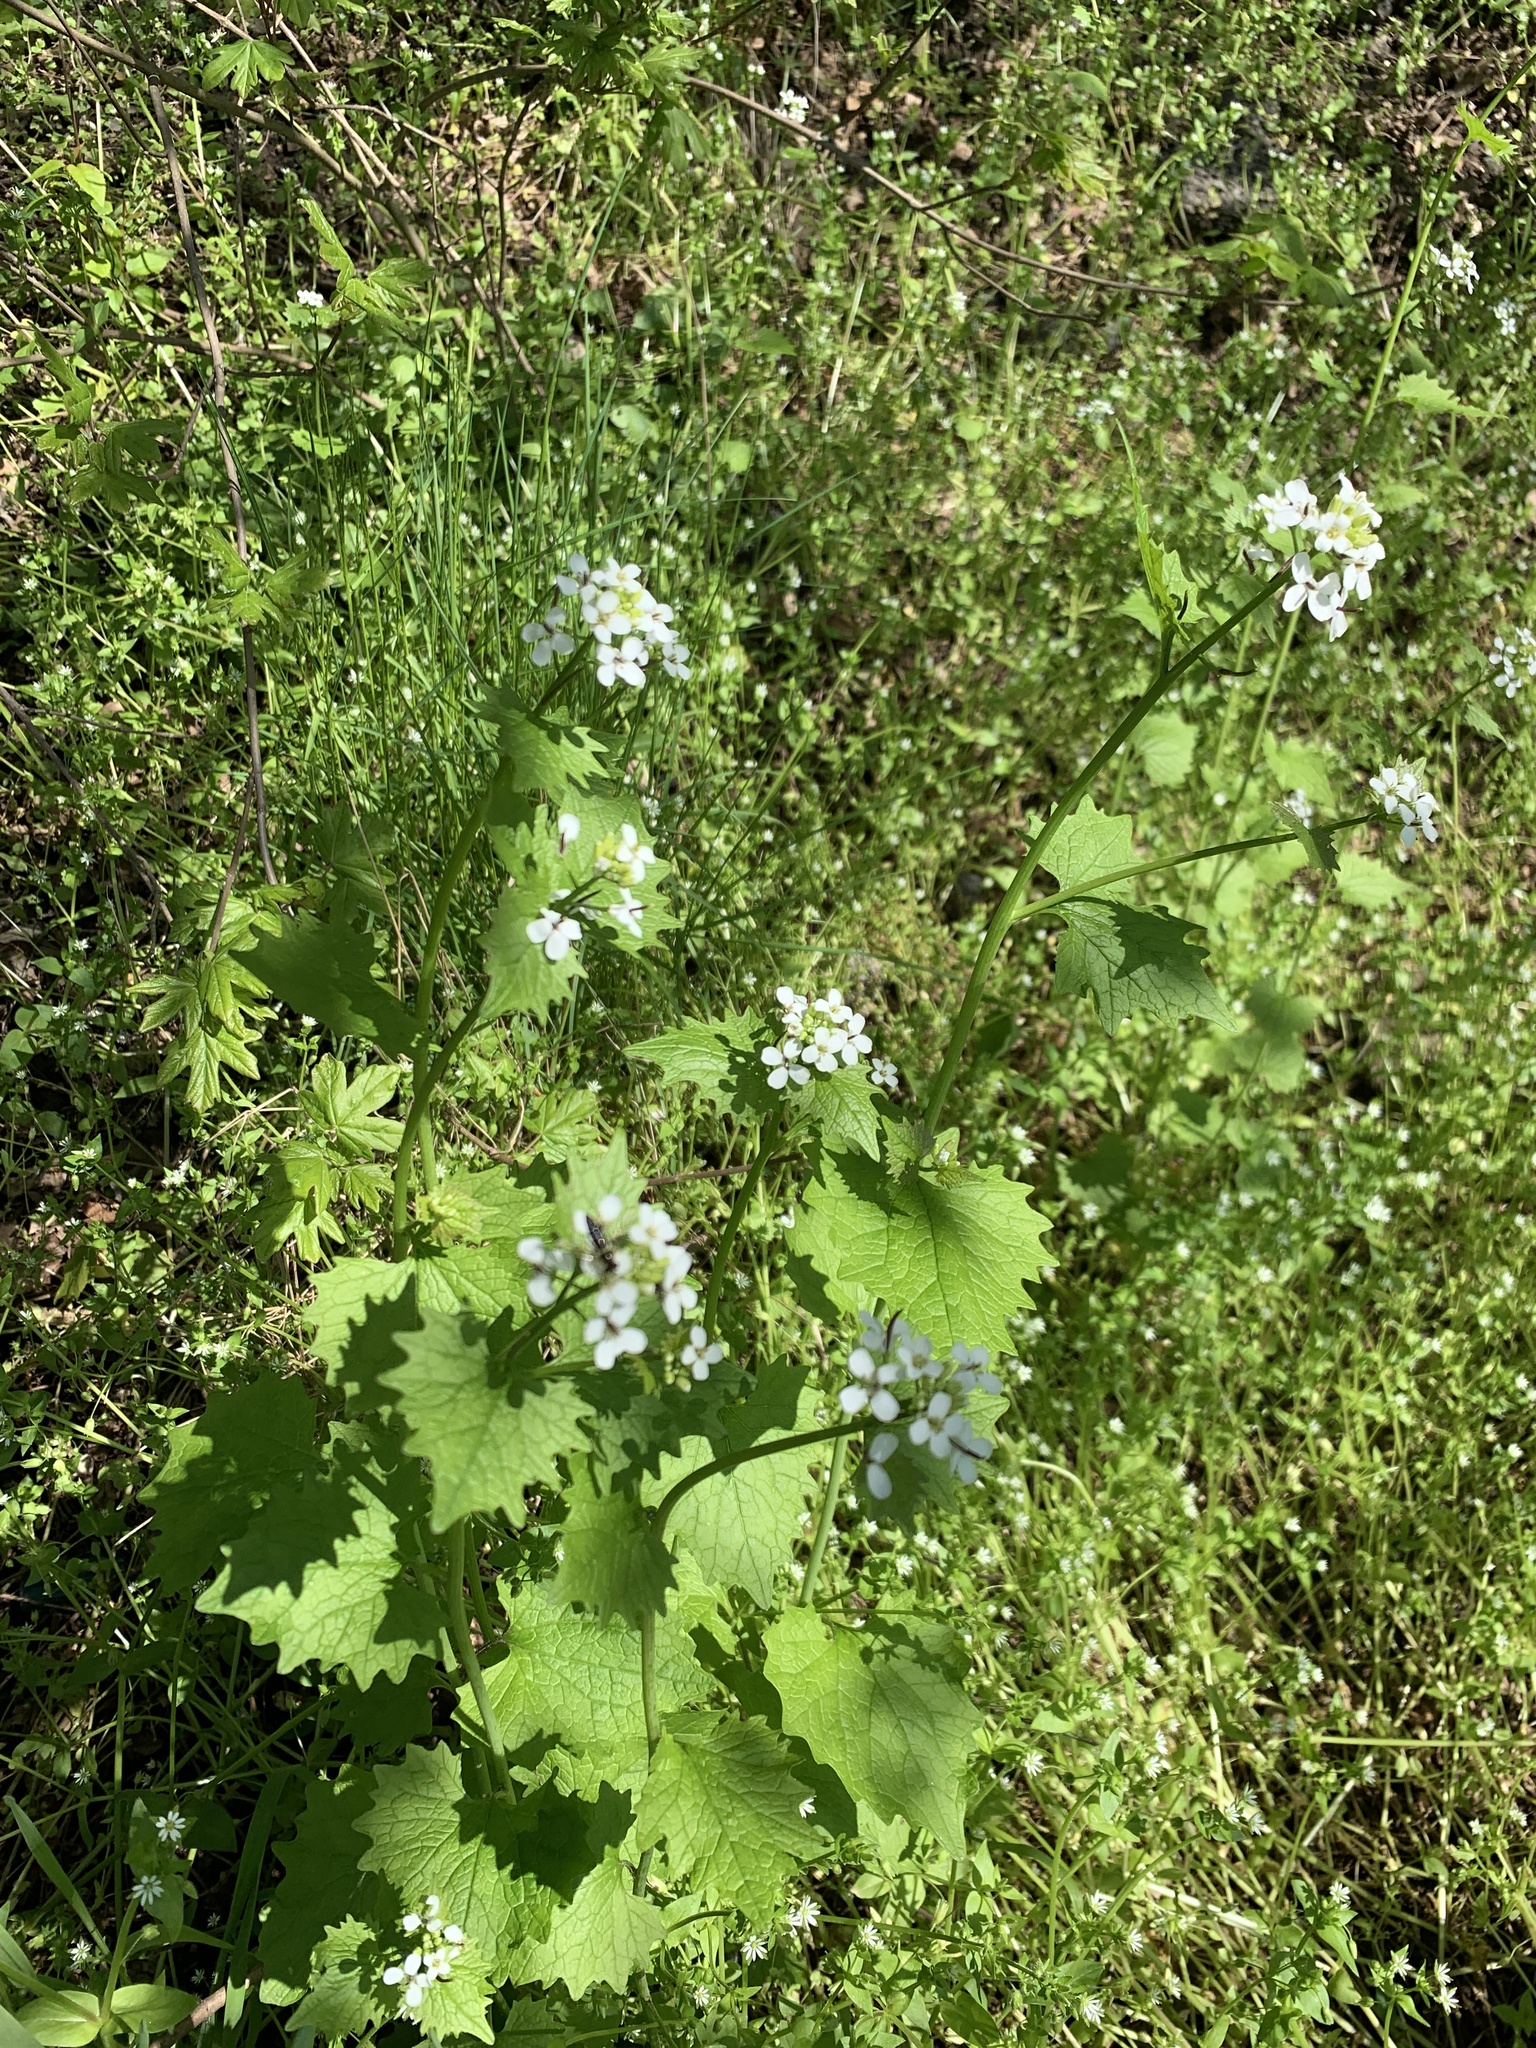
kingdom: Plantae
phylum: Tracheophyta
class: Magnoliopsida
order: Brassicales
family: Brassicaceae
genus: Alliaria
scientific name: Alliaria petiolata
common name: Garlic mustard
